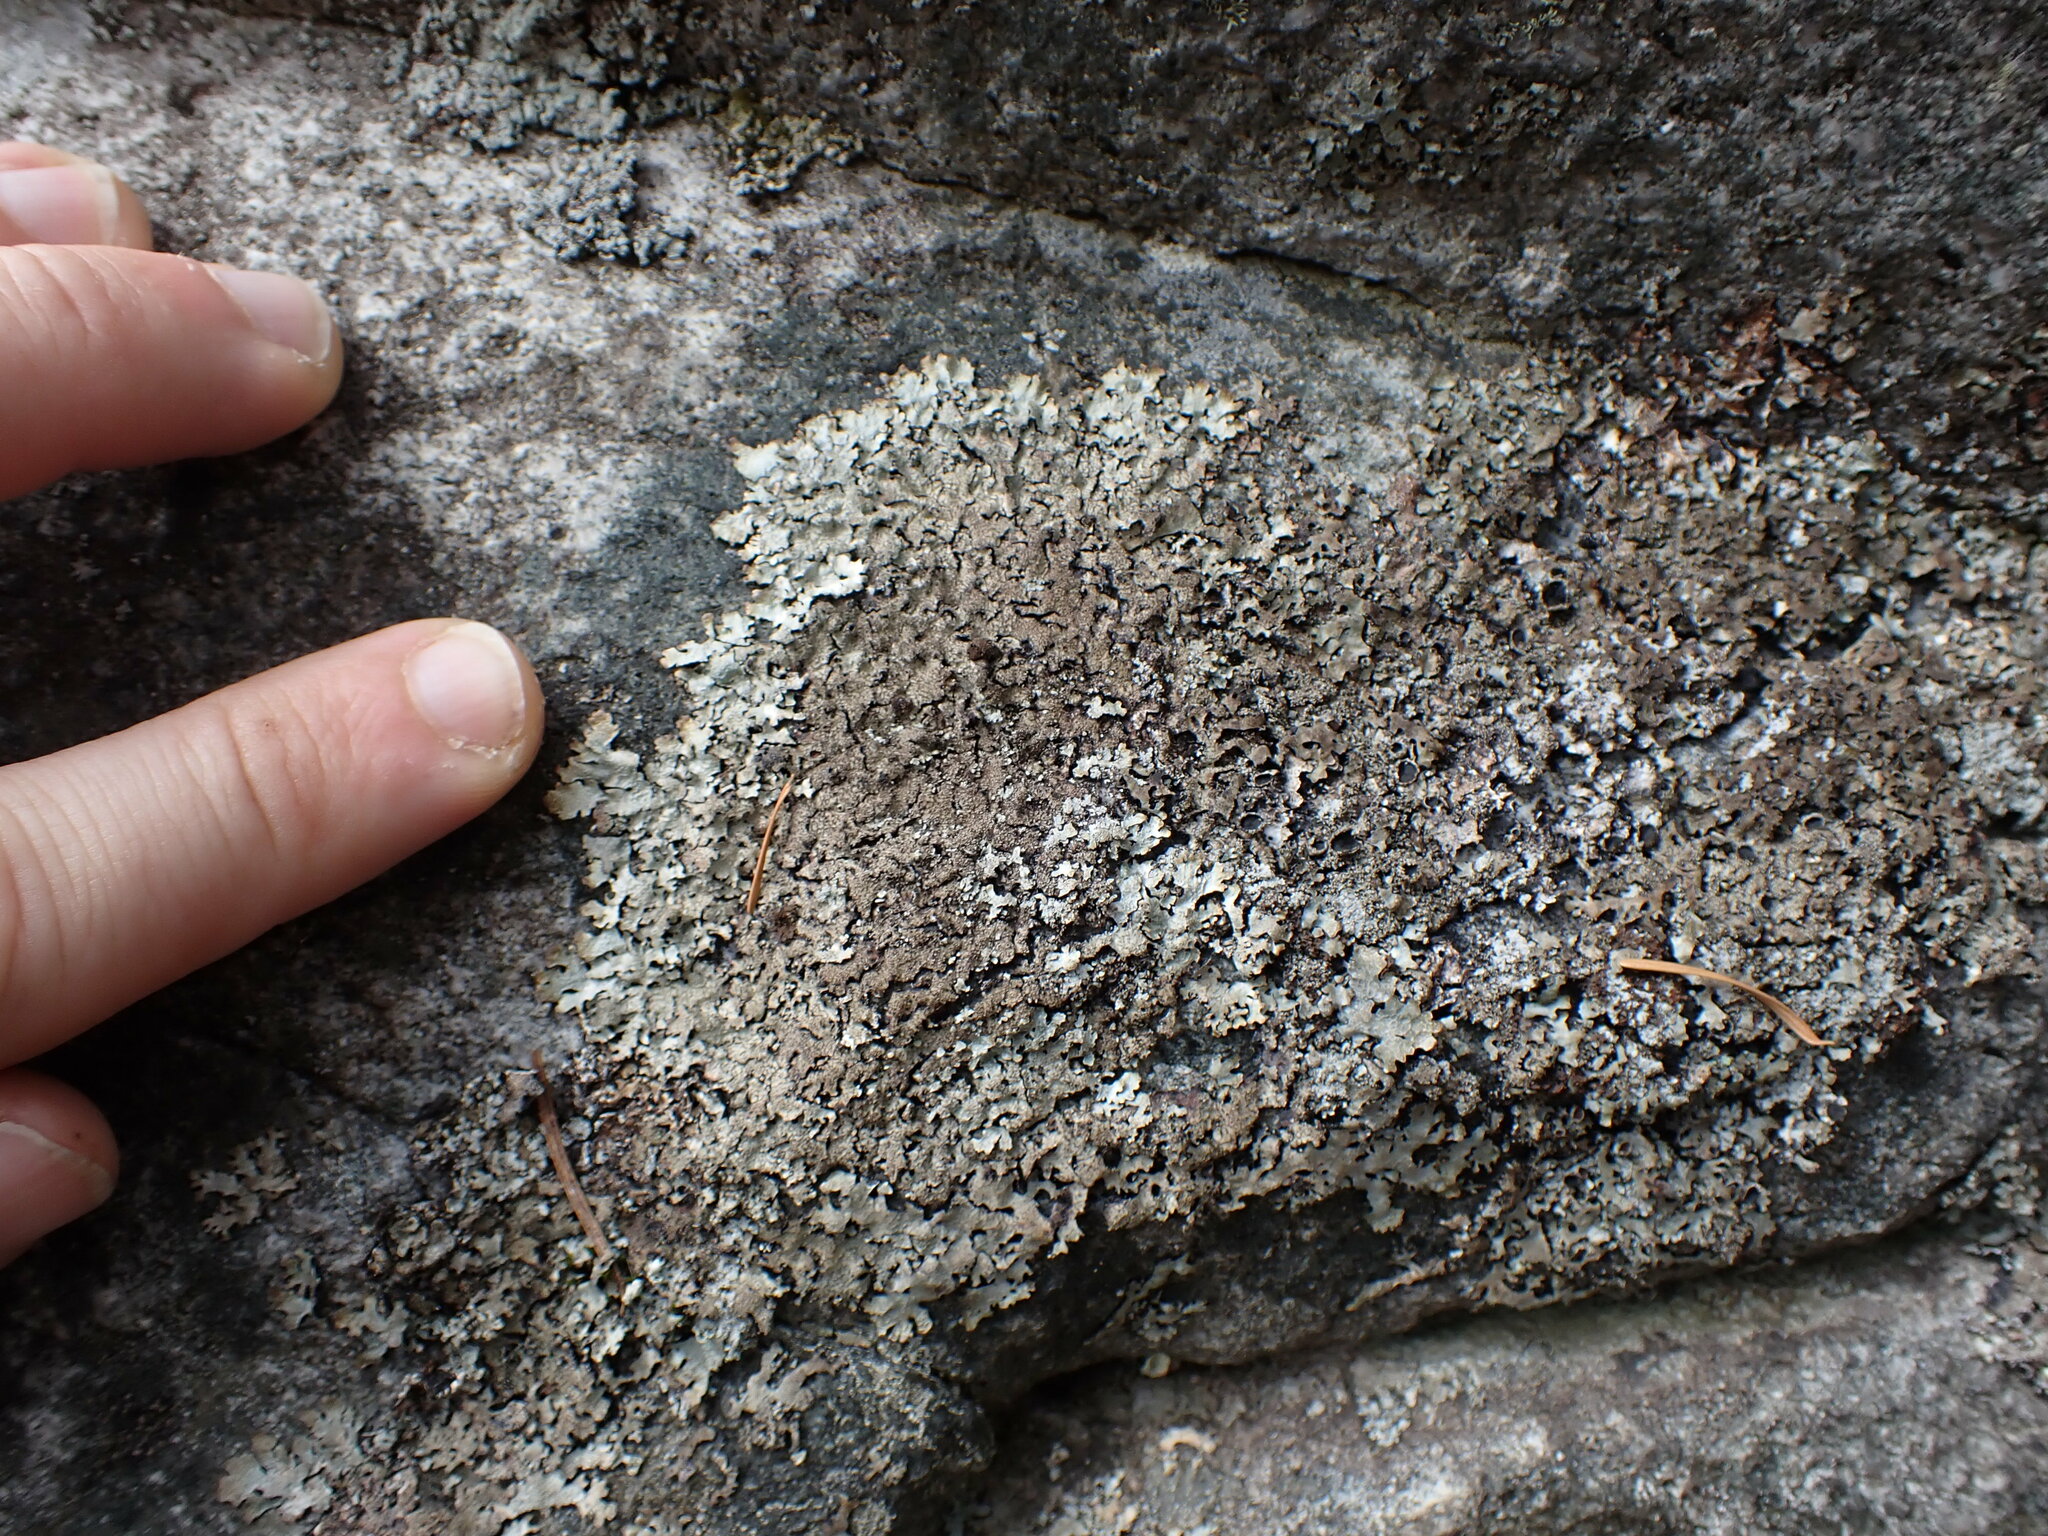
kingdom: Fungi
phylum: Ascomycota
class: Lecanoromycetes
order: Lecanorales
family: Parmeliaceae
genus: Parmelia
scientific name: Parmelia saxatilis
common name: Salted shield lichen
